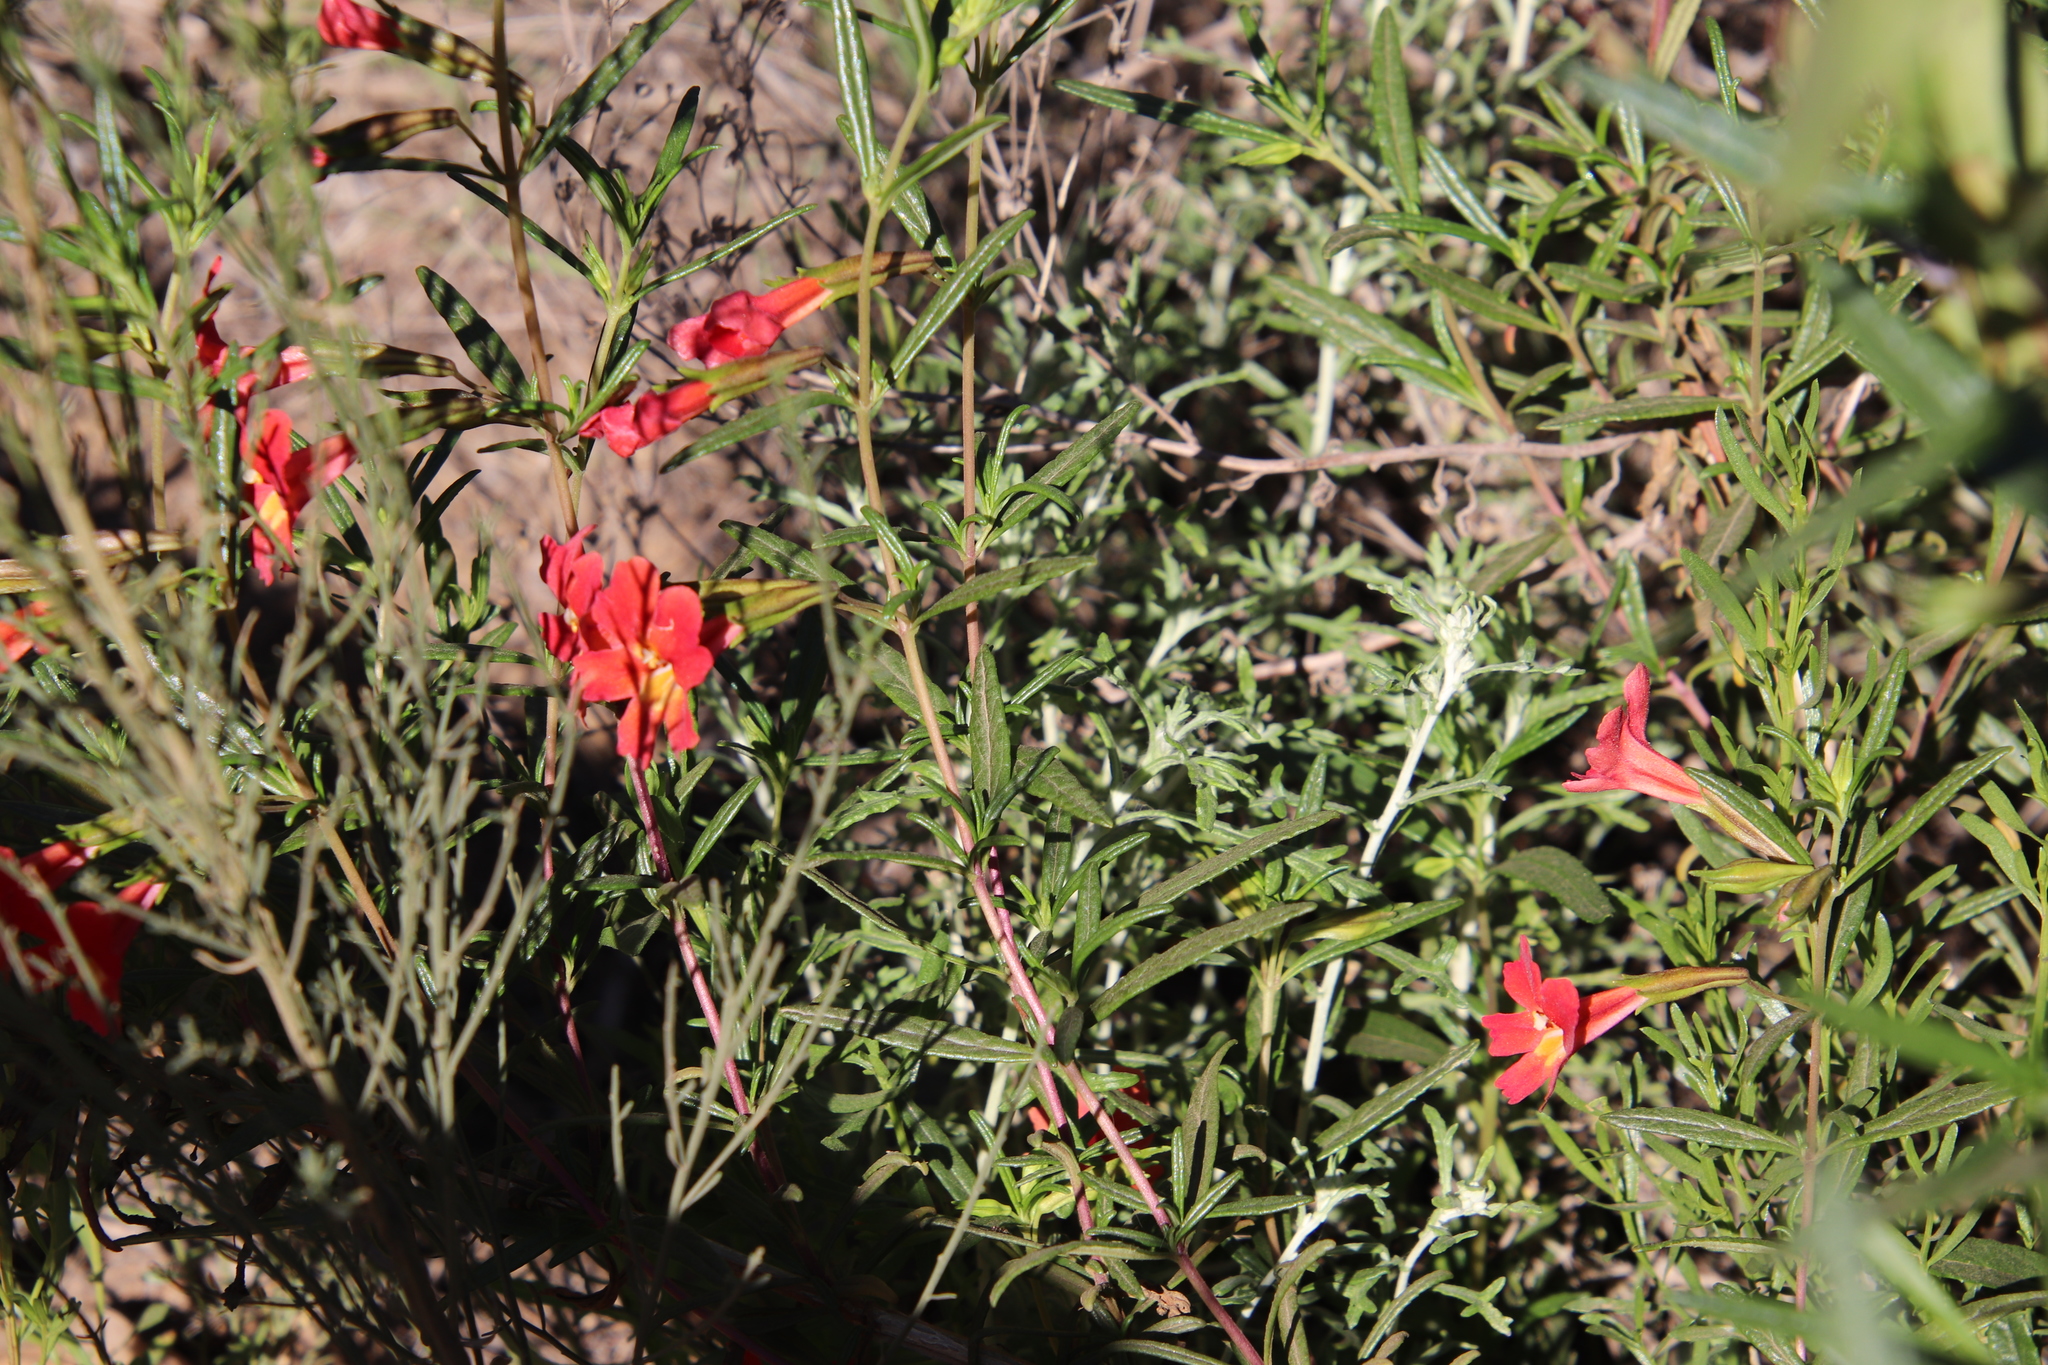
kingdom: Plantae
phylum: Tracheophyta
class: Magnoliopsida
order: Lamiales
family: Phrymaceae
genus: Diplacus
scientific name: Diplacus puniceus
